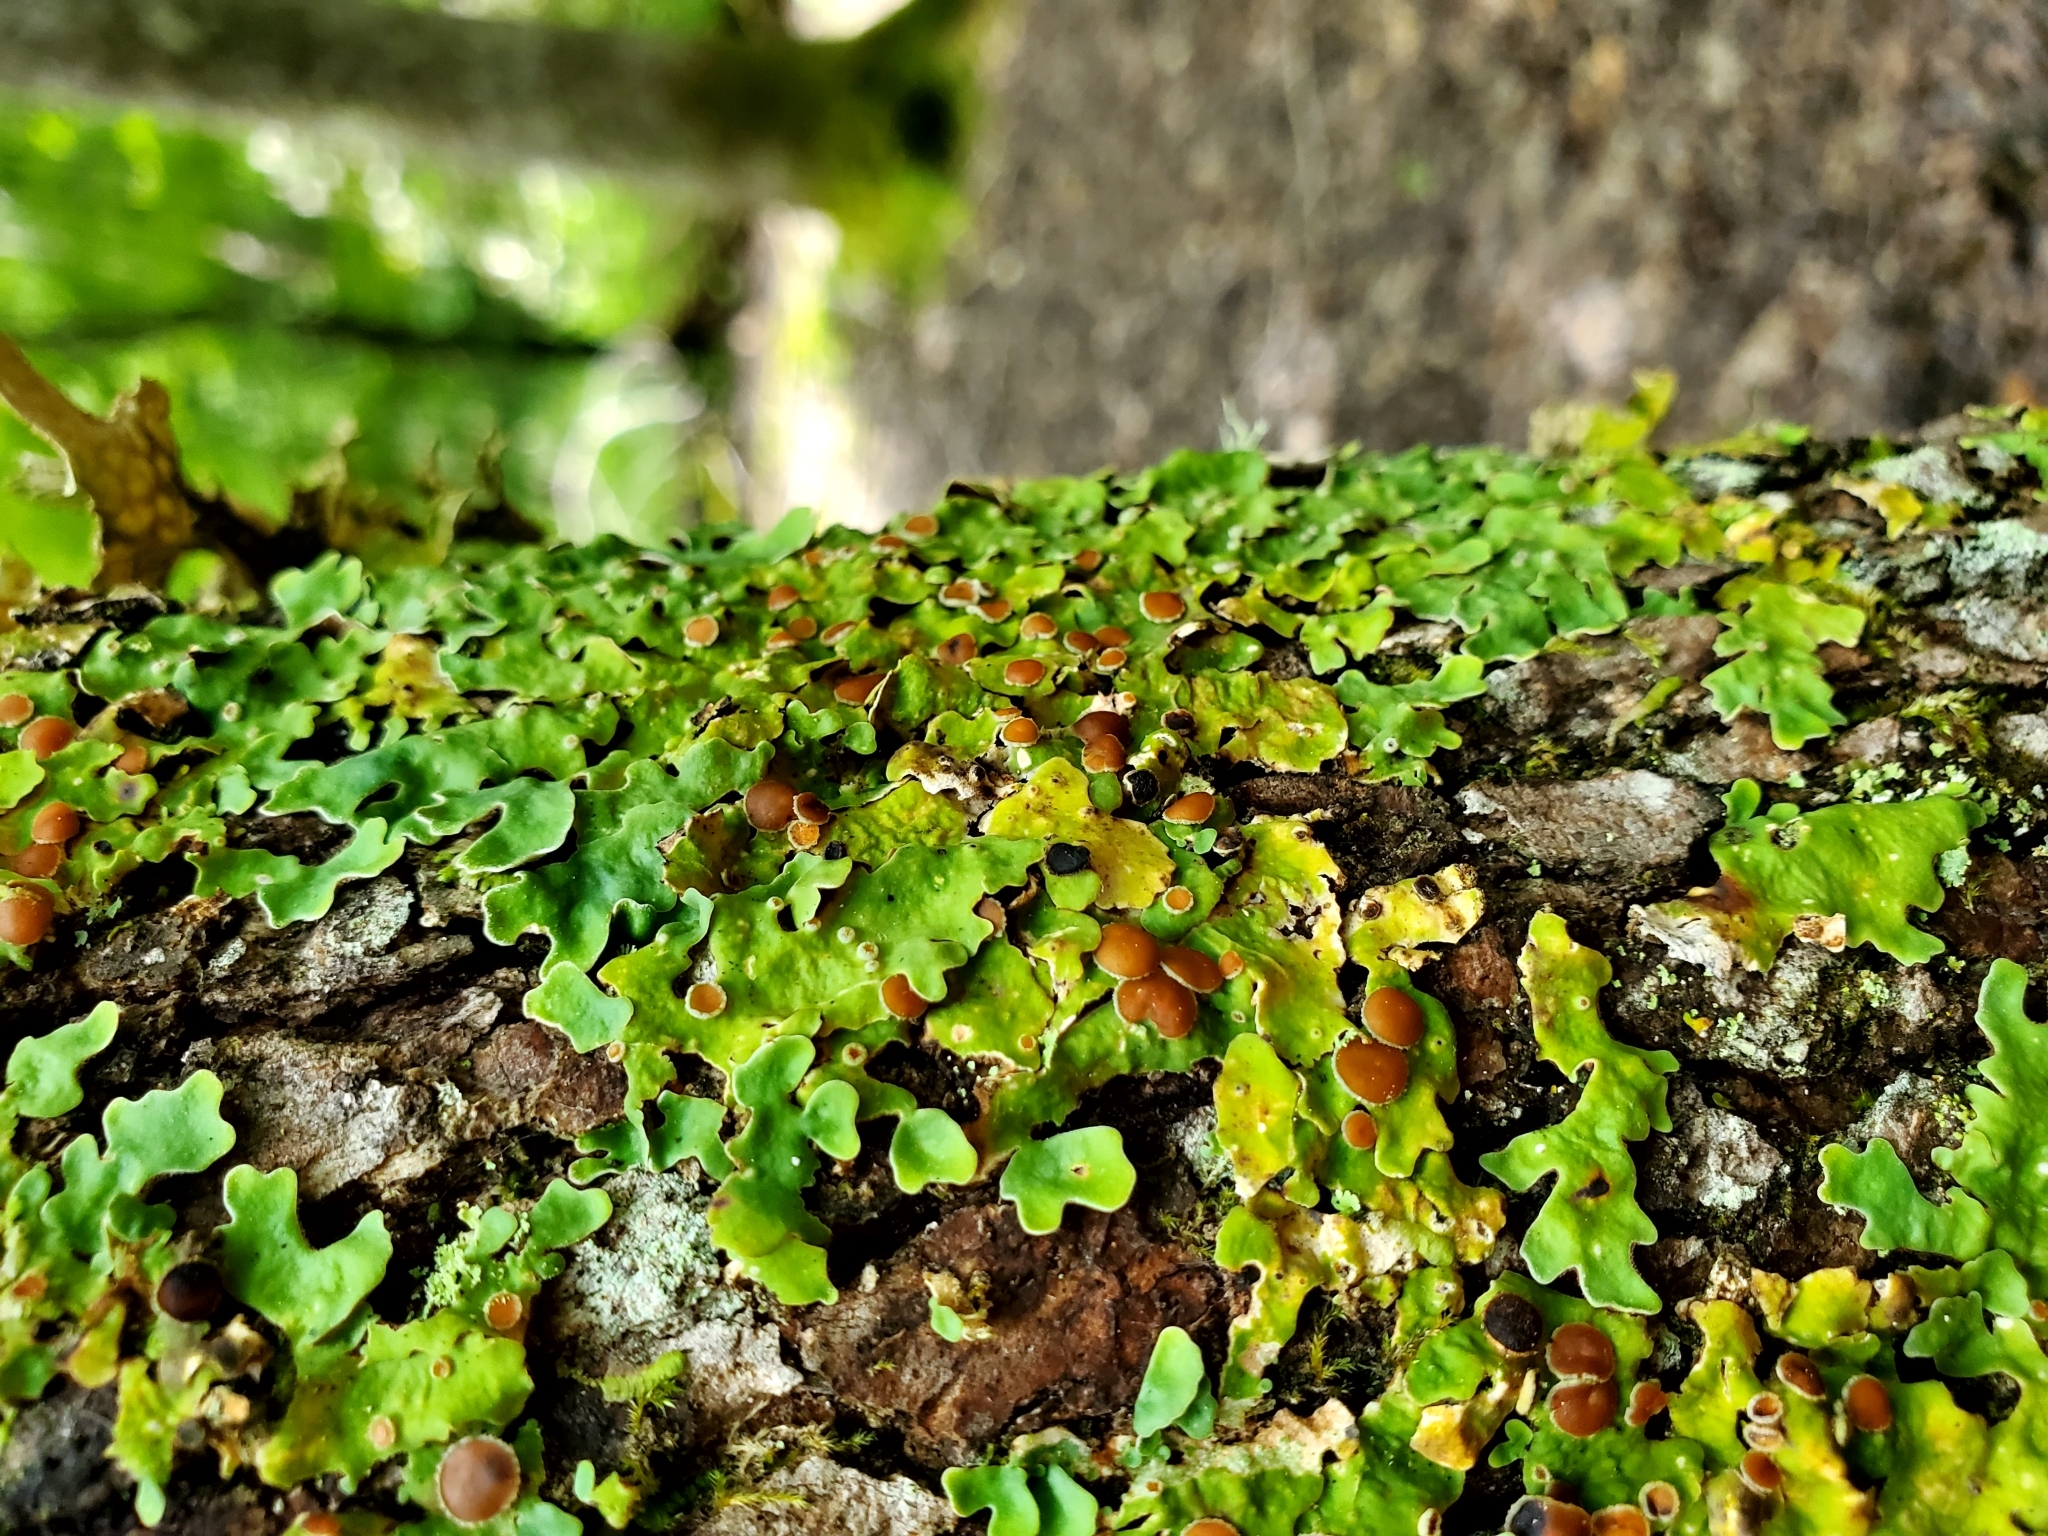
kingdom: Fungi
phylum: Ascomycota
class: Lecanoromycetes
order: Peltigerales
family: Lobariaceae
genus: Ricasolia
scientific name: Ricasolia quercizans
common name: Smooth lungwort
